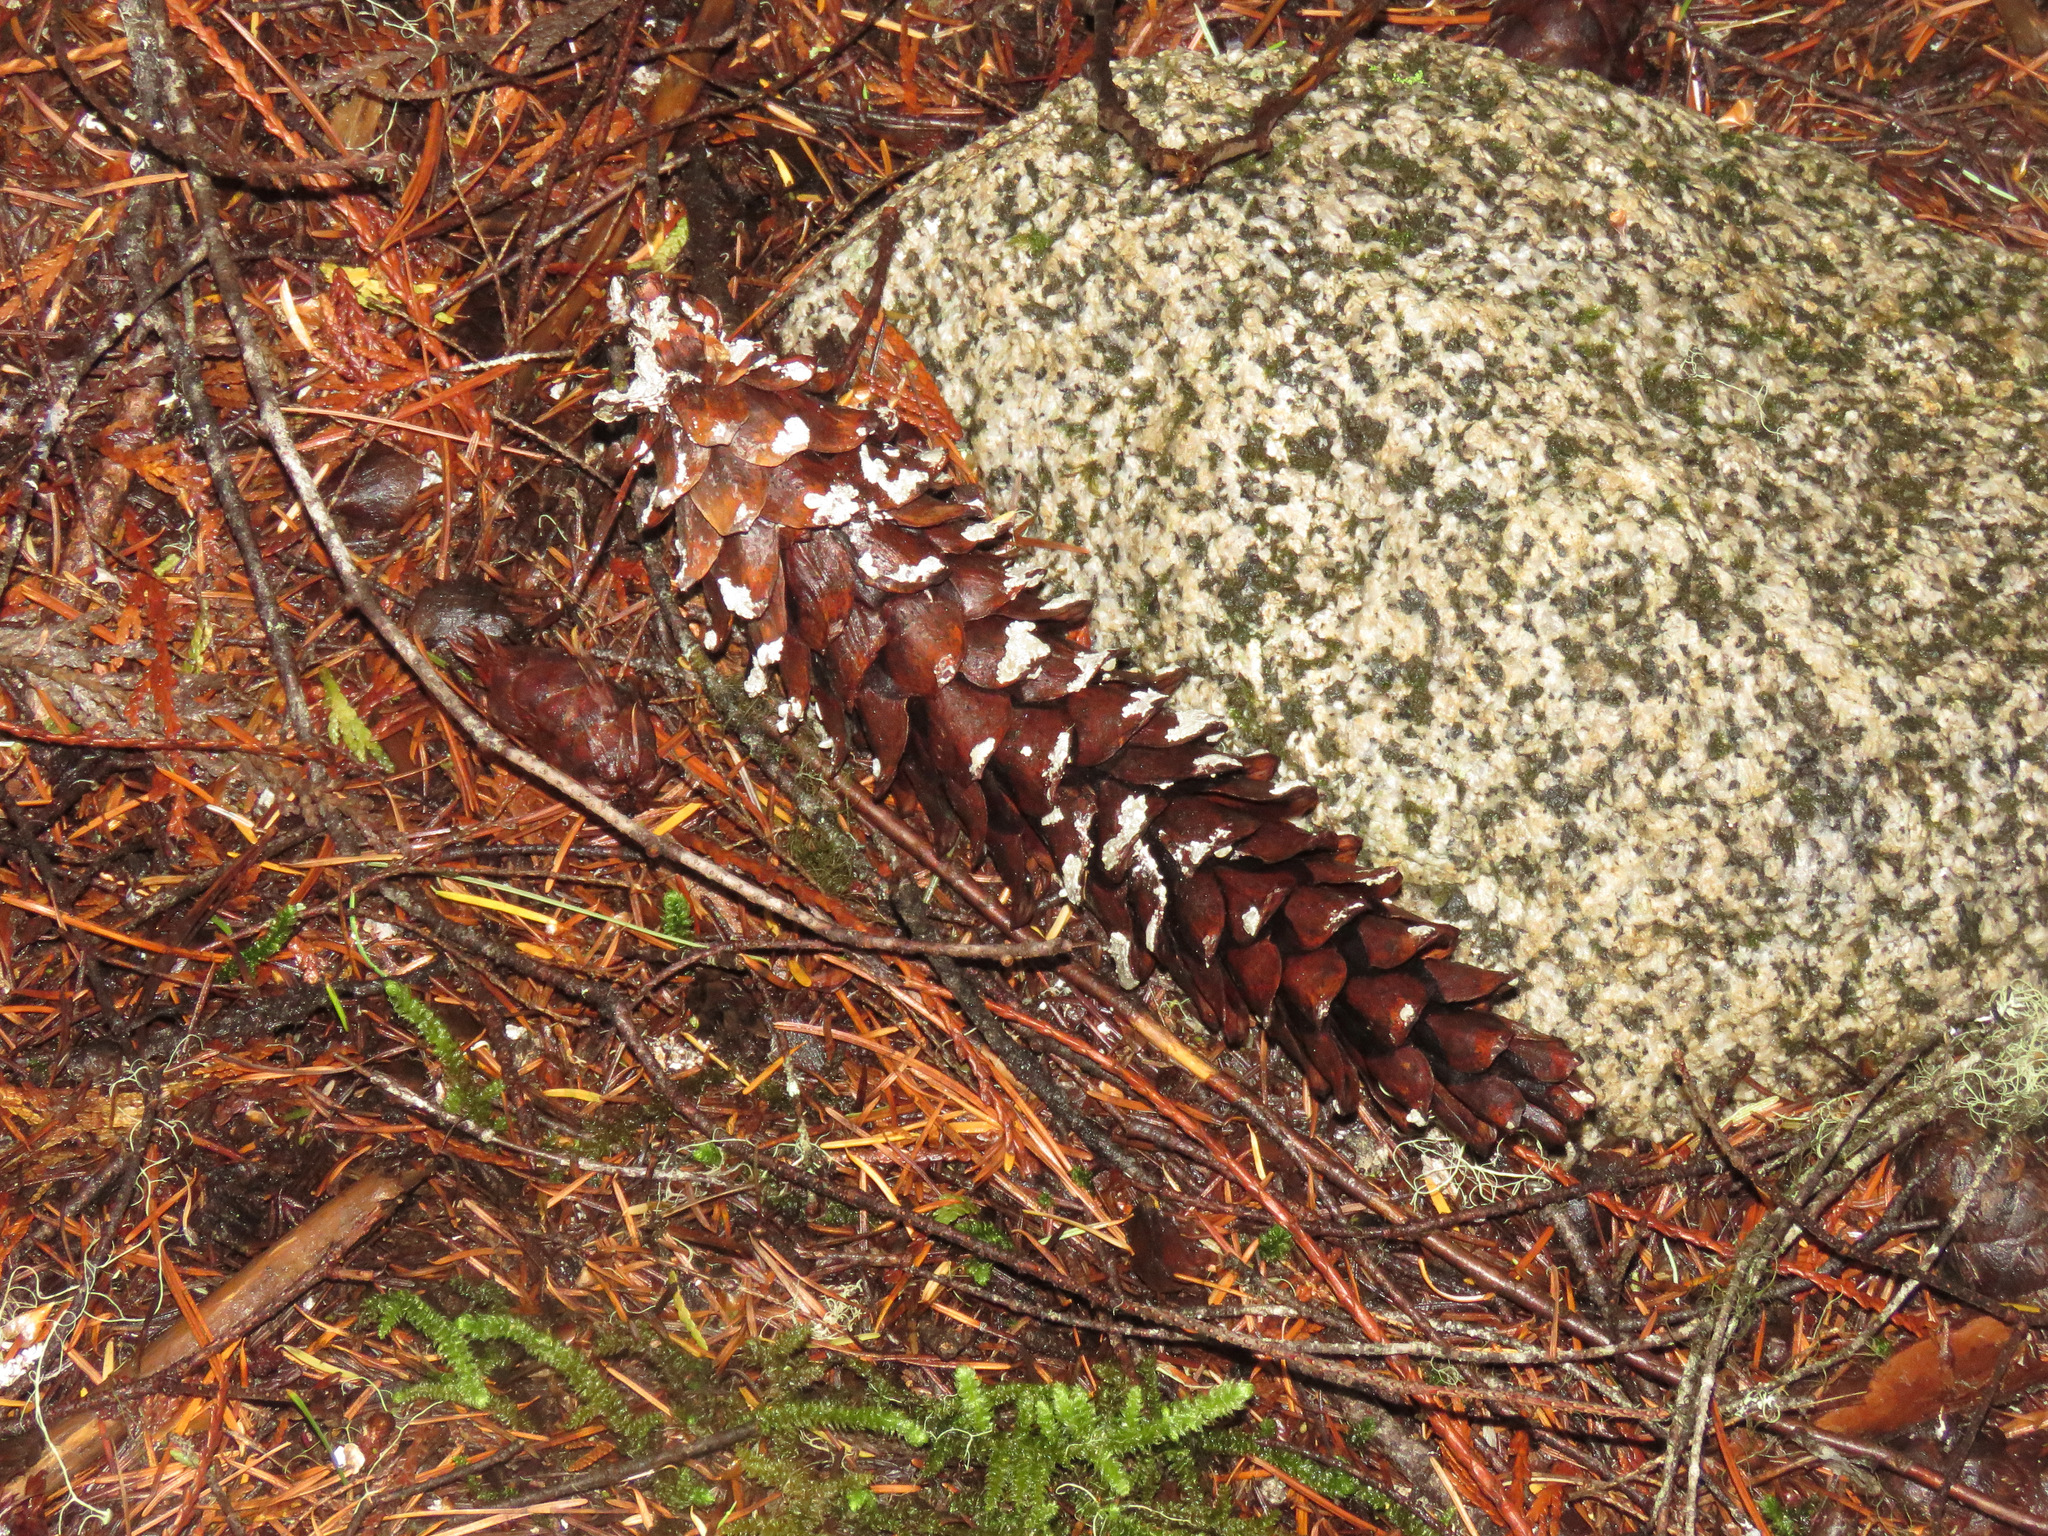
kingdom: Plantae
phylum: Tracheophyta
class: Pinopsida
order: Pinales
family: Pinaceae
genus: Pinus
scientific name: Pinus monticola
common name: Western white pine
